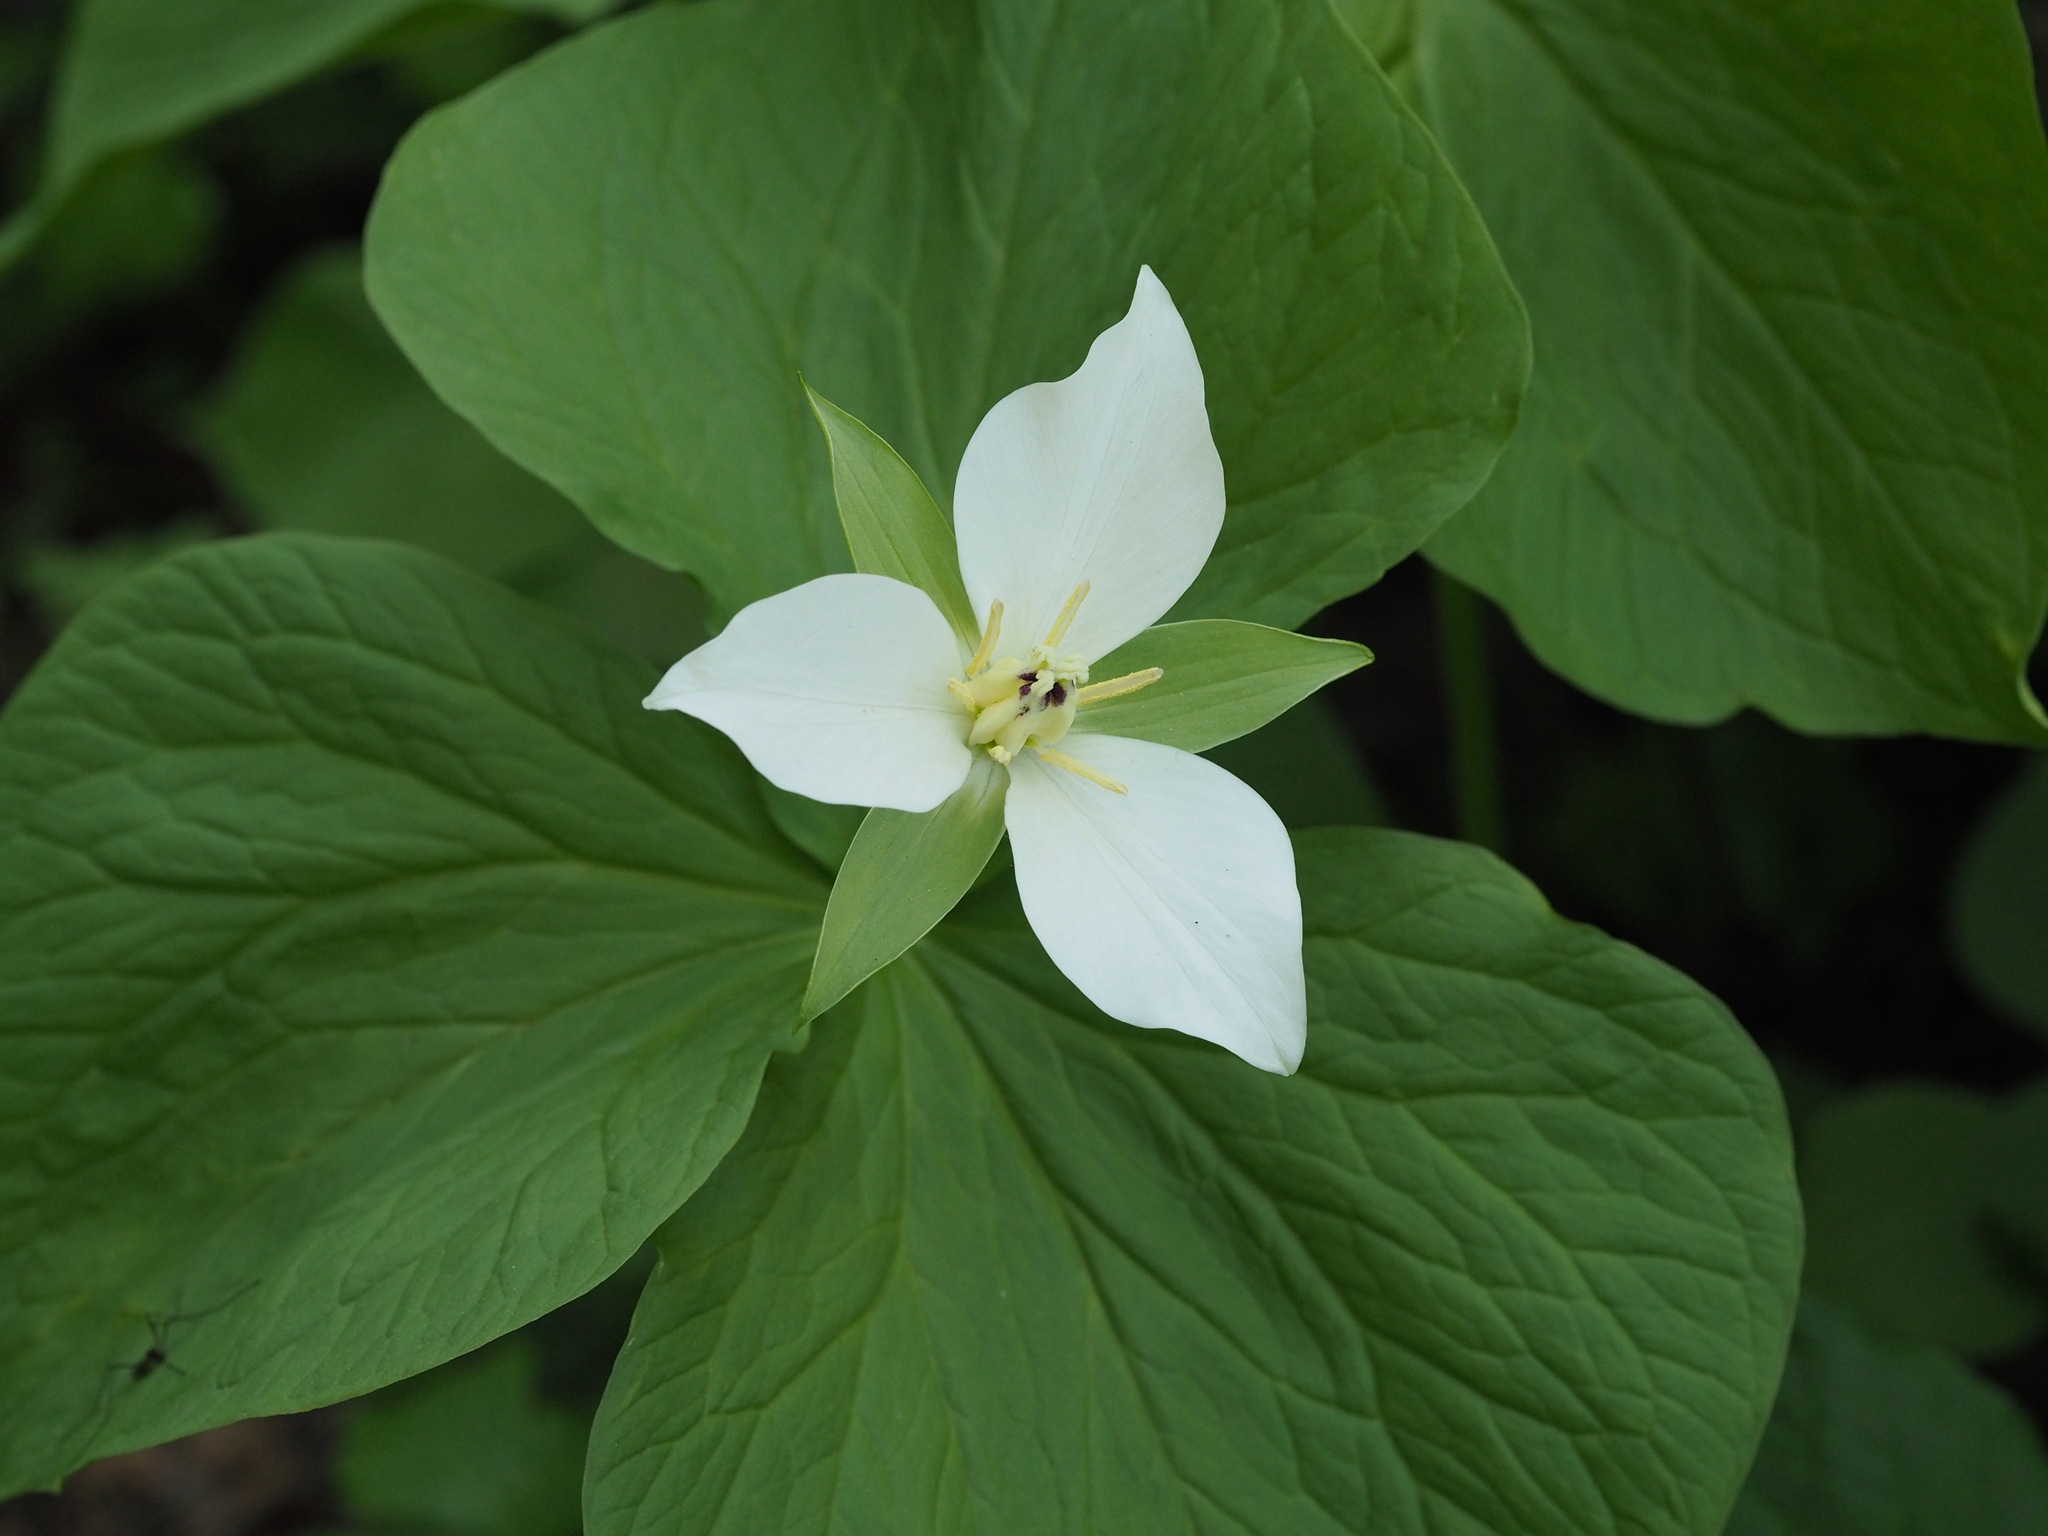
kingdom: Plantae
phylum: Tracheophyta
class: Liliopsida
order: Liliales
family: Melanthiaceae
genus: Trillium
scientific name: Trillium camschatcense
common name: Kamchatka trillium
